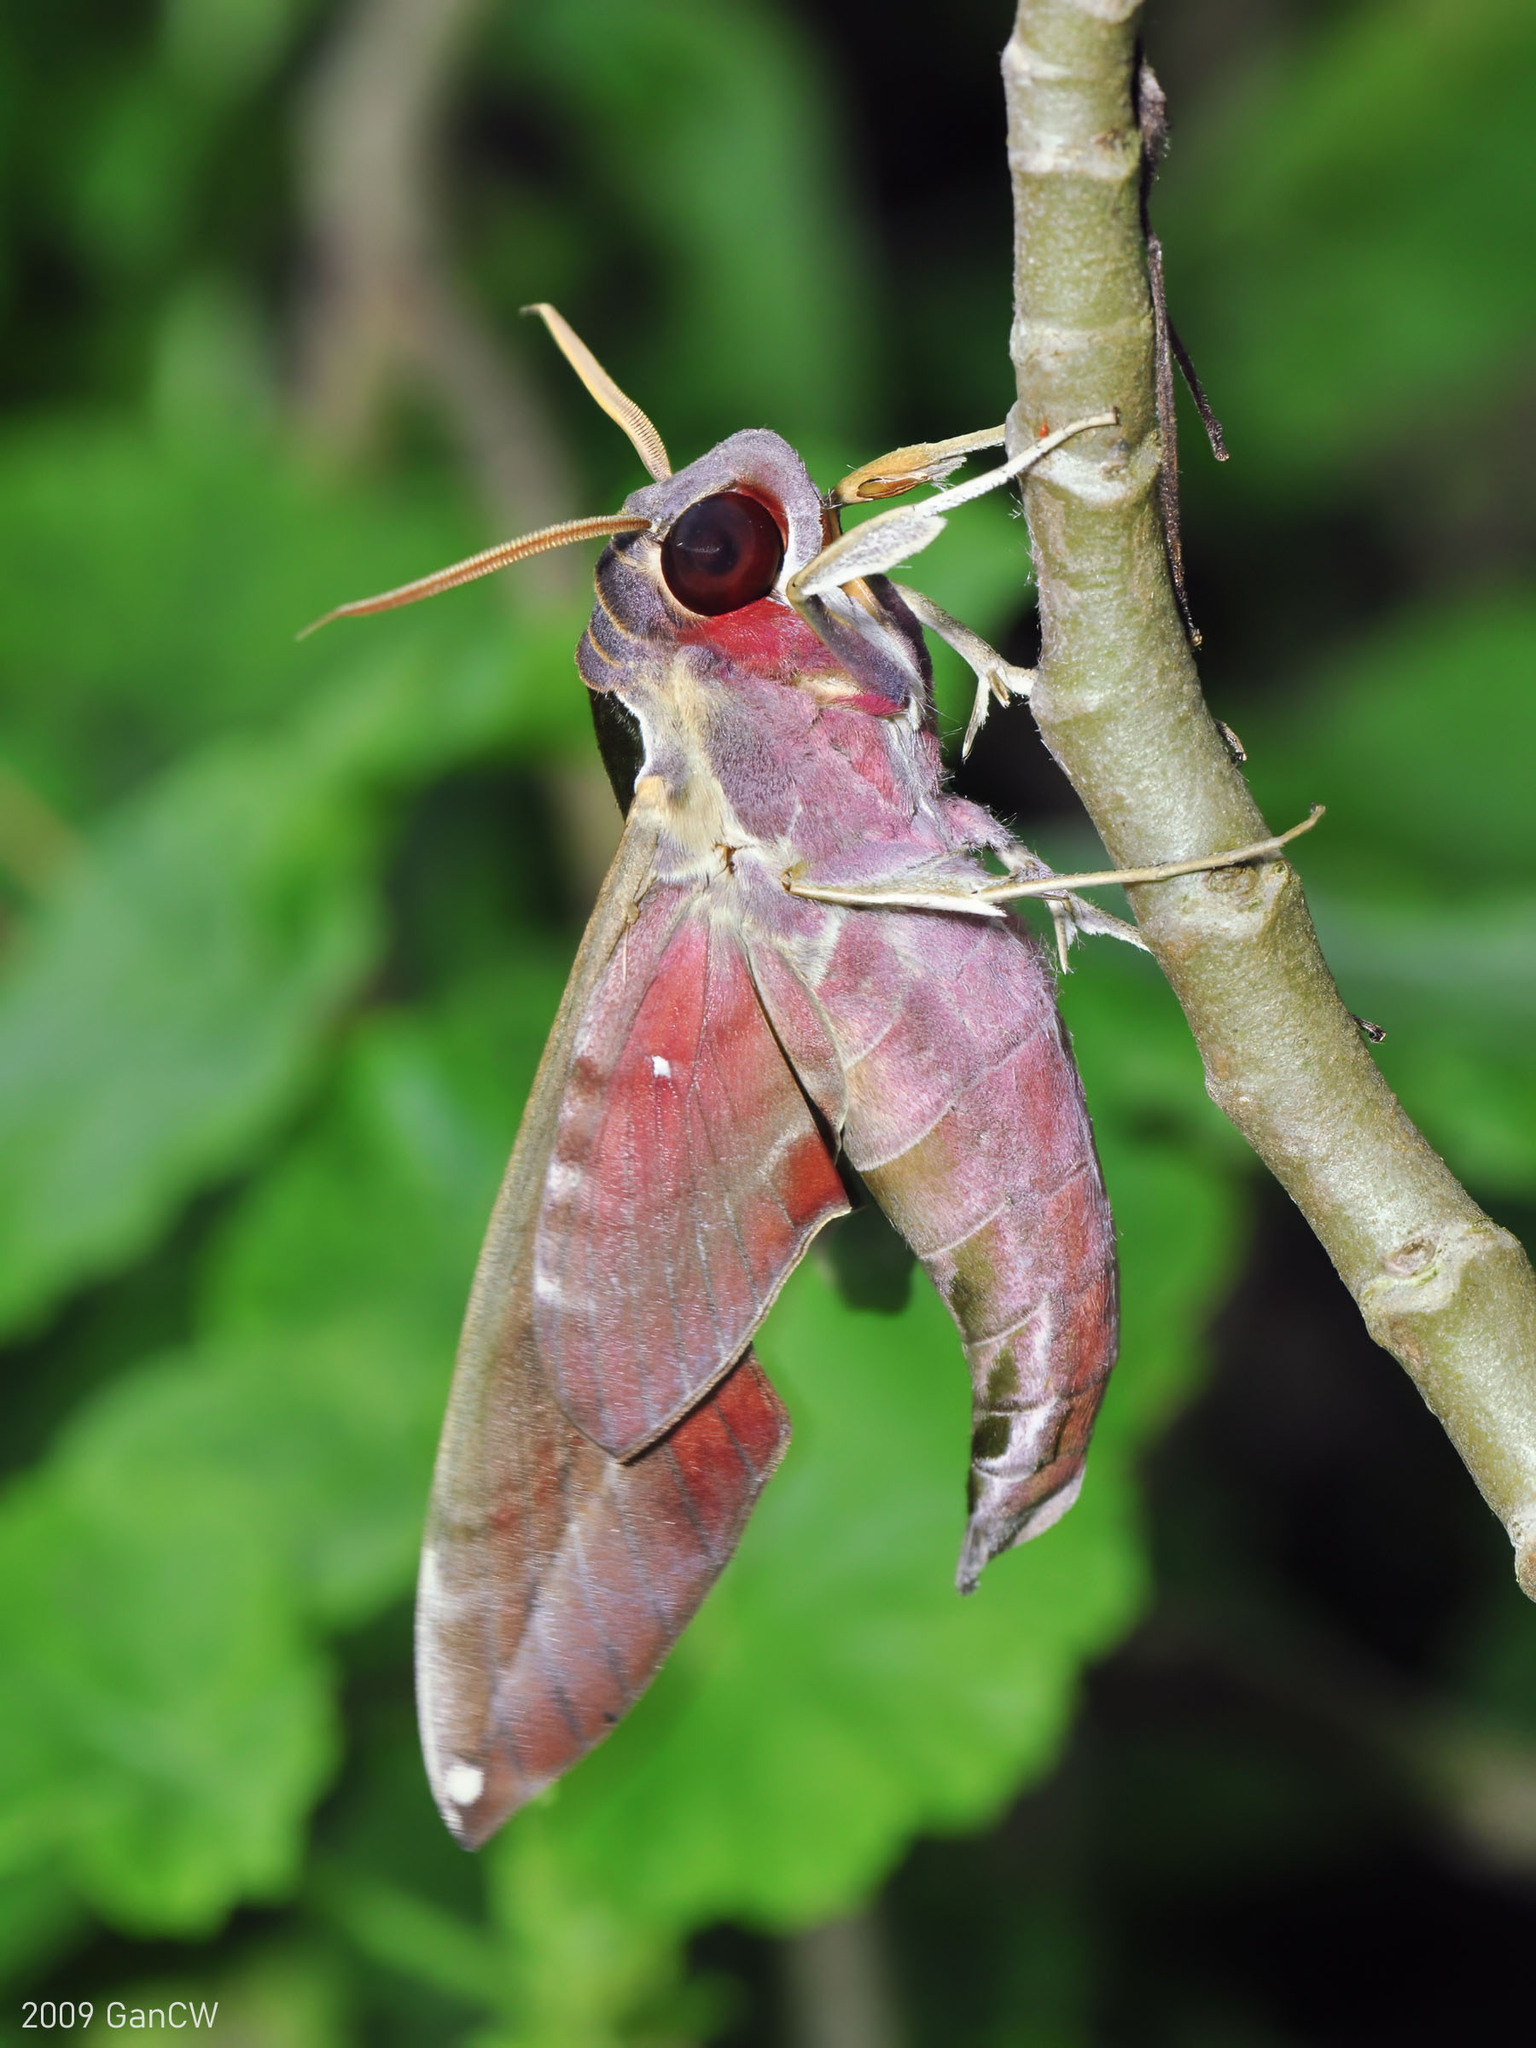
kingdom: Animalia
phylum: Arthropoda
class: Insecta
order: Lepidoptera
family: Sphingidae
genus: Daphnis
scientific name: Daphnis hypothous
